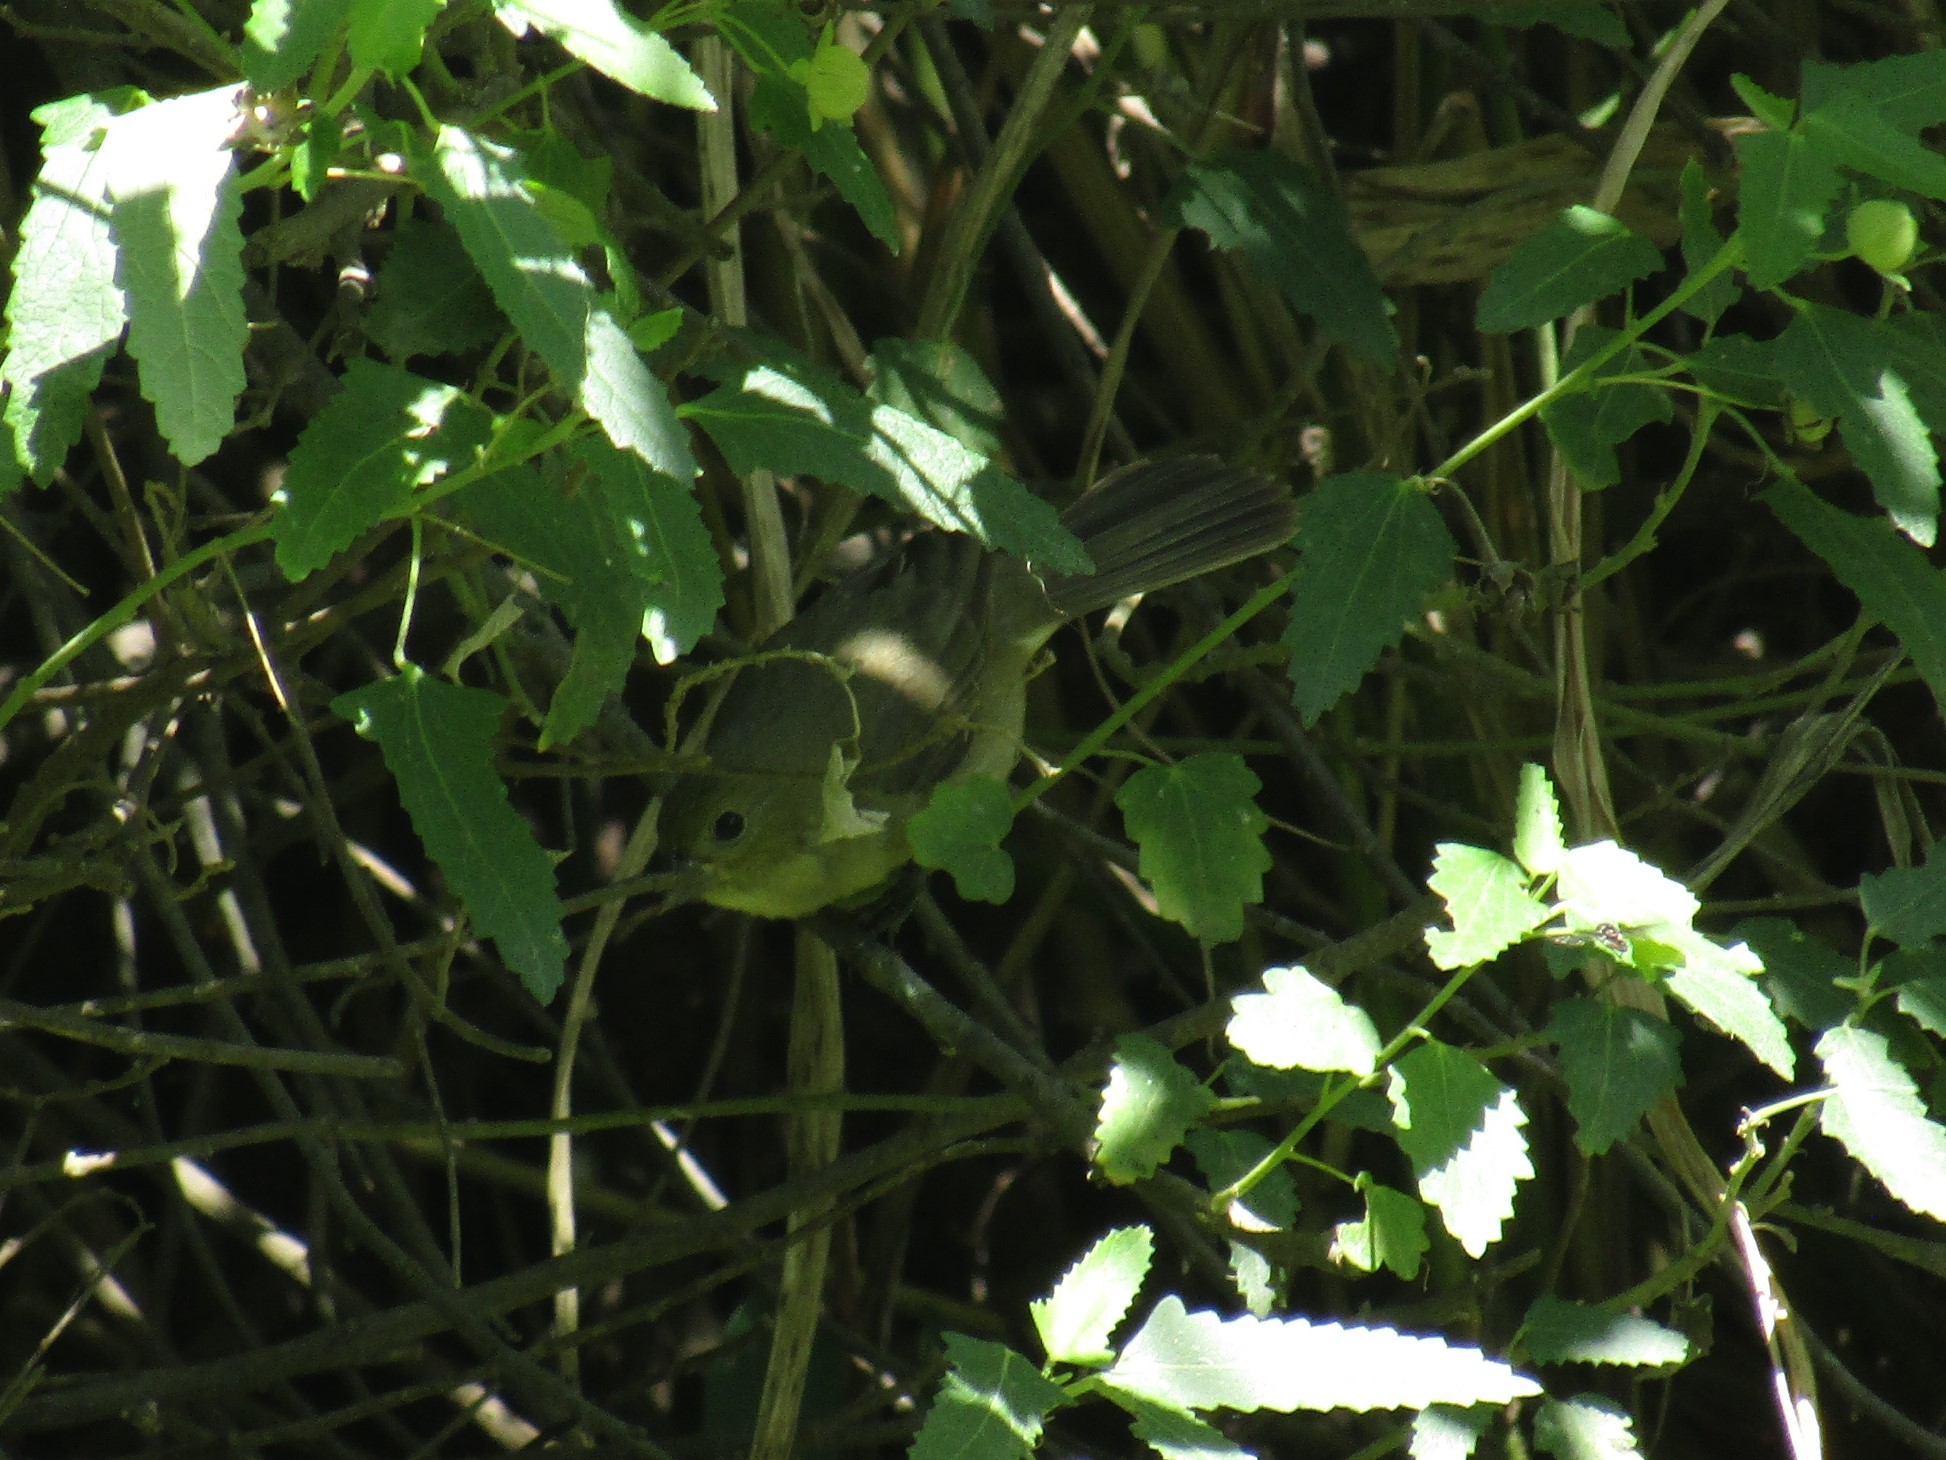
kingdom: Animalia
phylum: Chordata
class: Aves
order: Passeriformes
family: Thraupidae
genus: Sporophila
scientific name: Sporophila caerulescens
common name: Double-collared seedeater
